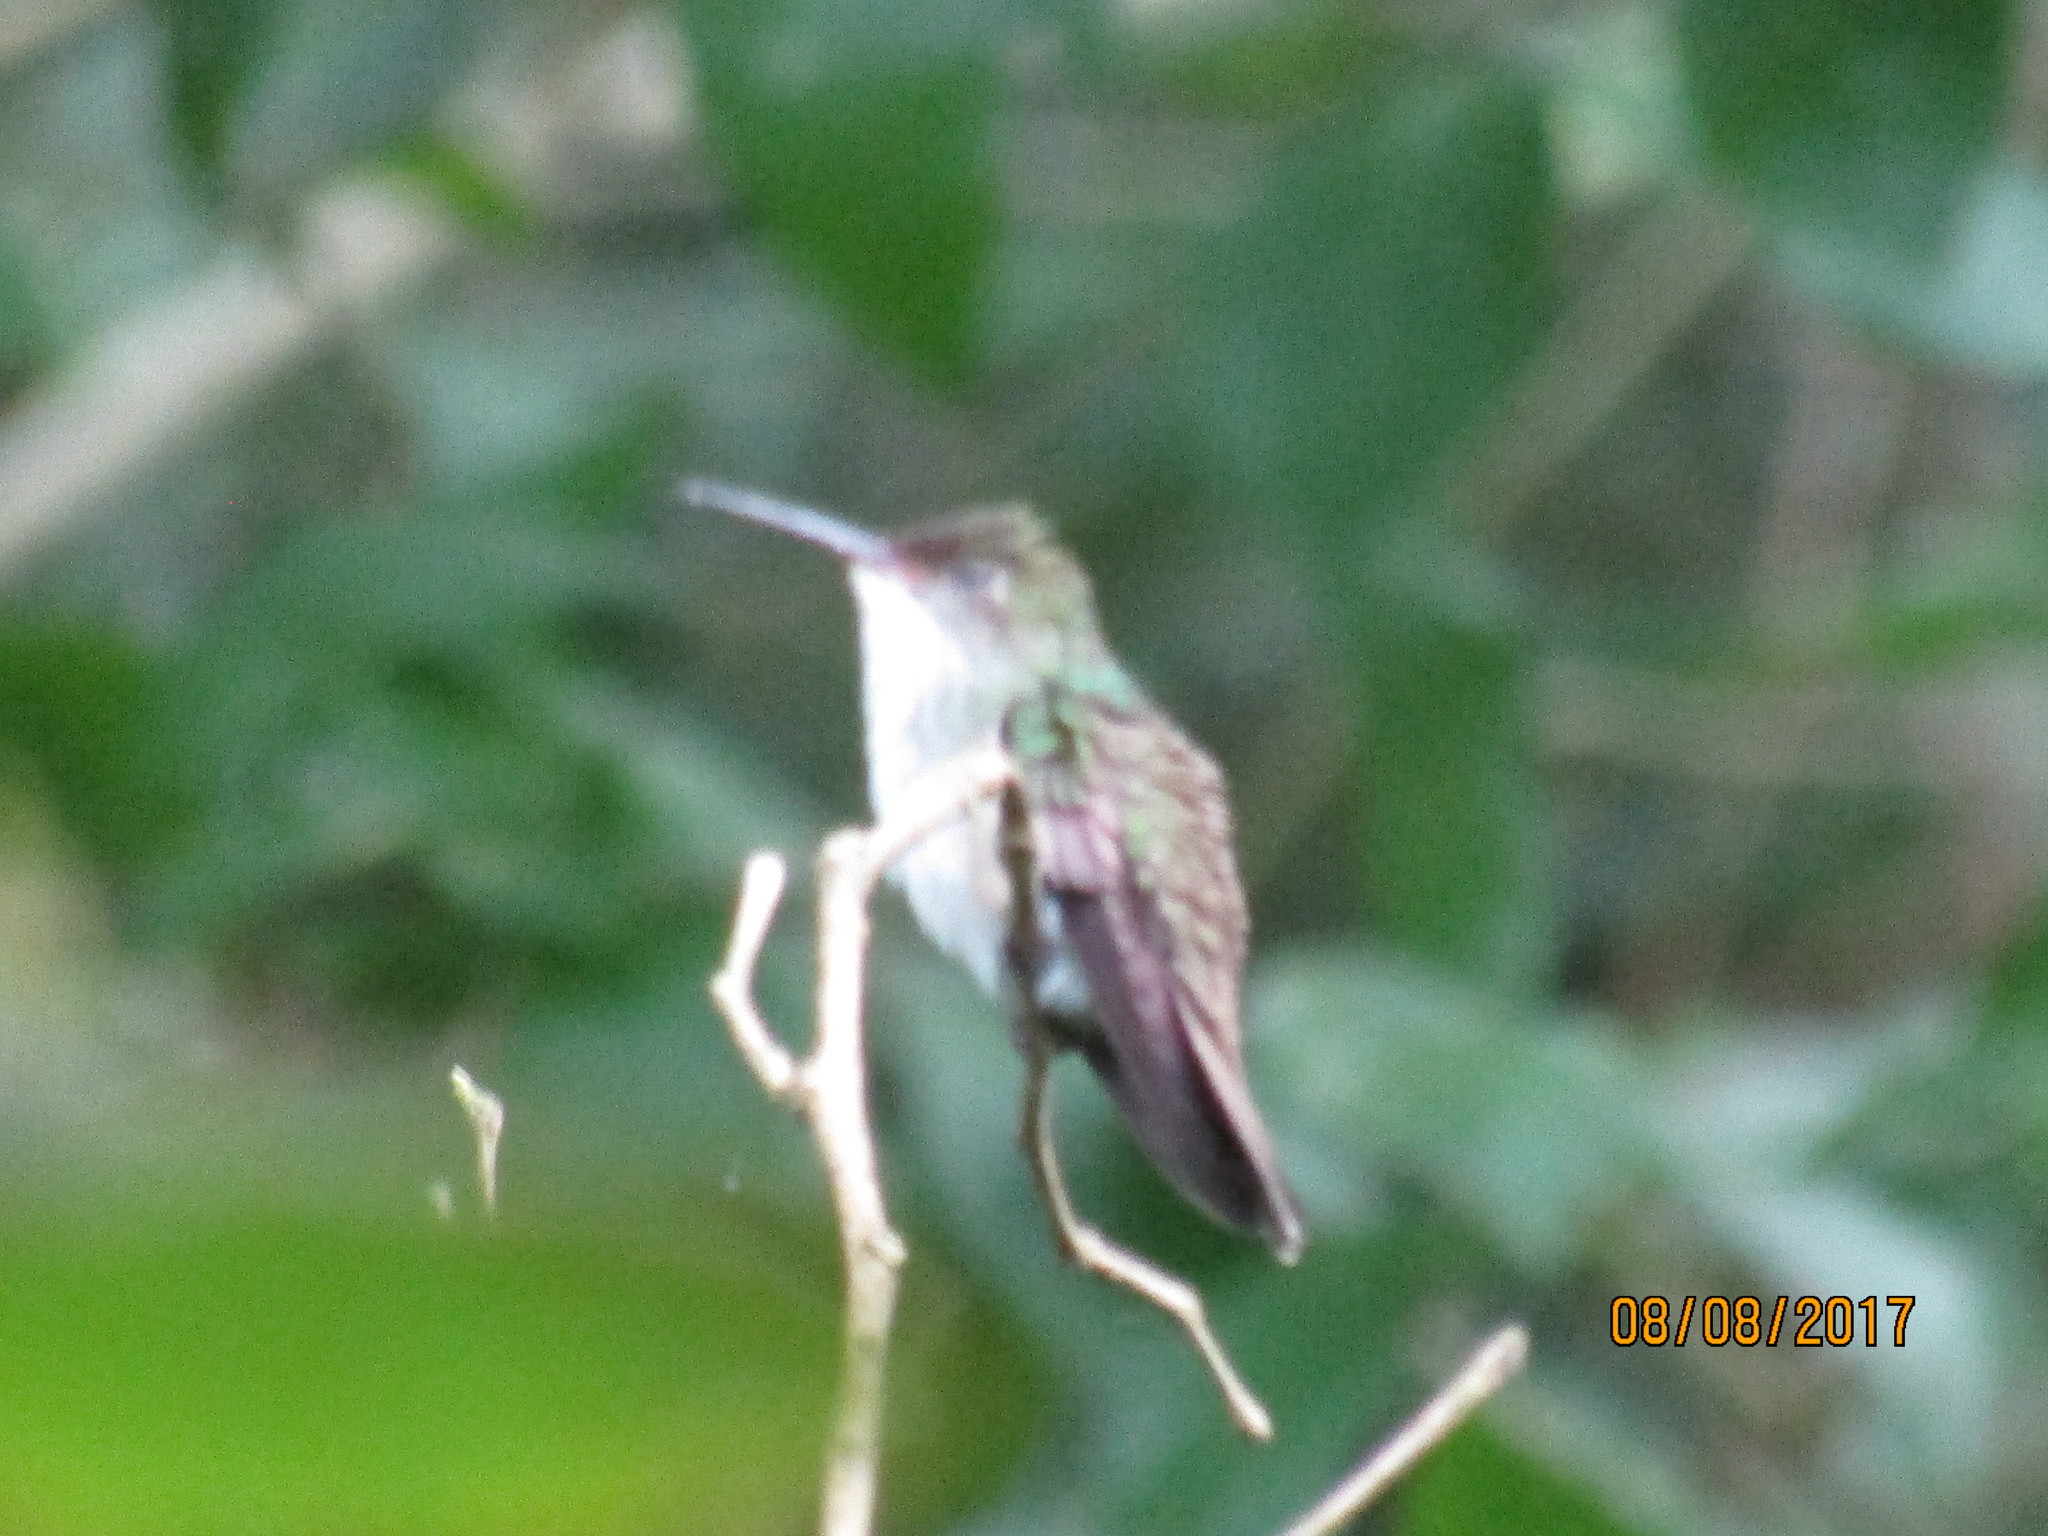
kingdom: Animalia
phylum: Chordata
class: Aves
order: Apodiformes
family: Trochilidae
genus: Chlorestes
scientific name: Chlorestes candida
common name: White-bellied emerald
